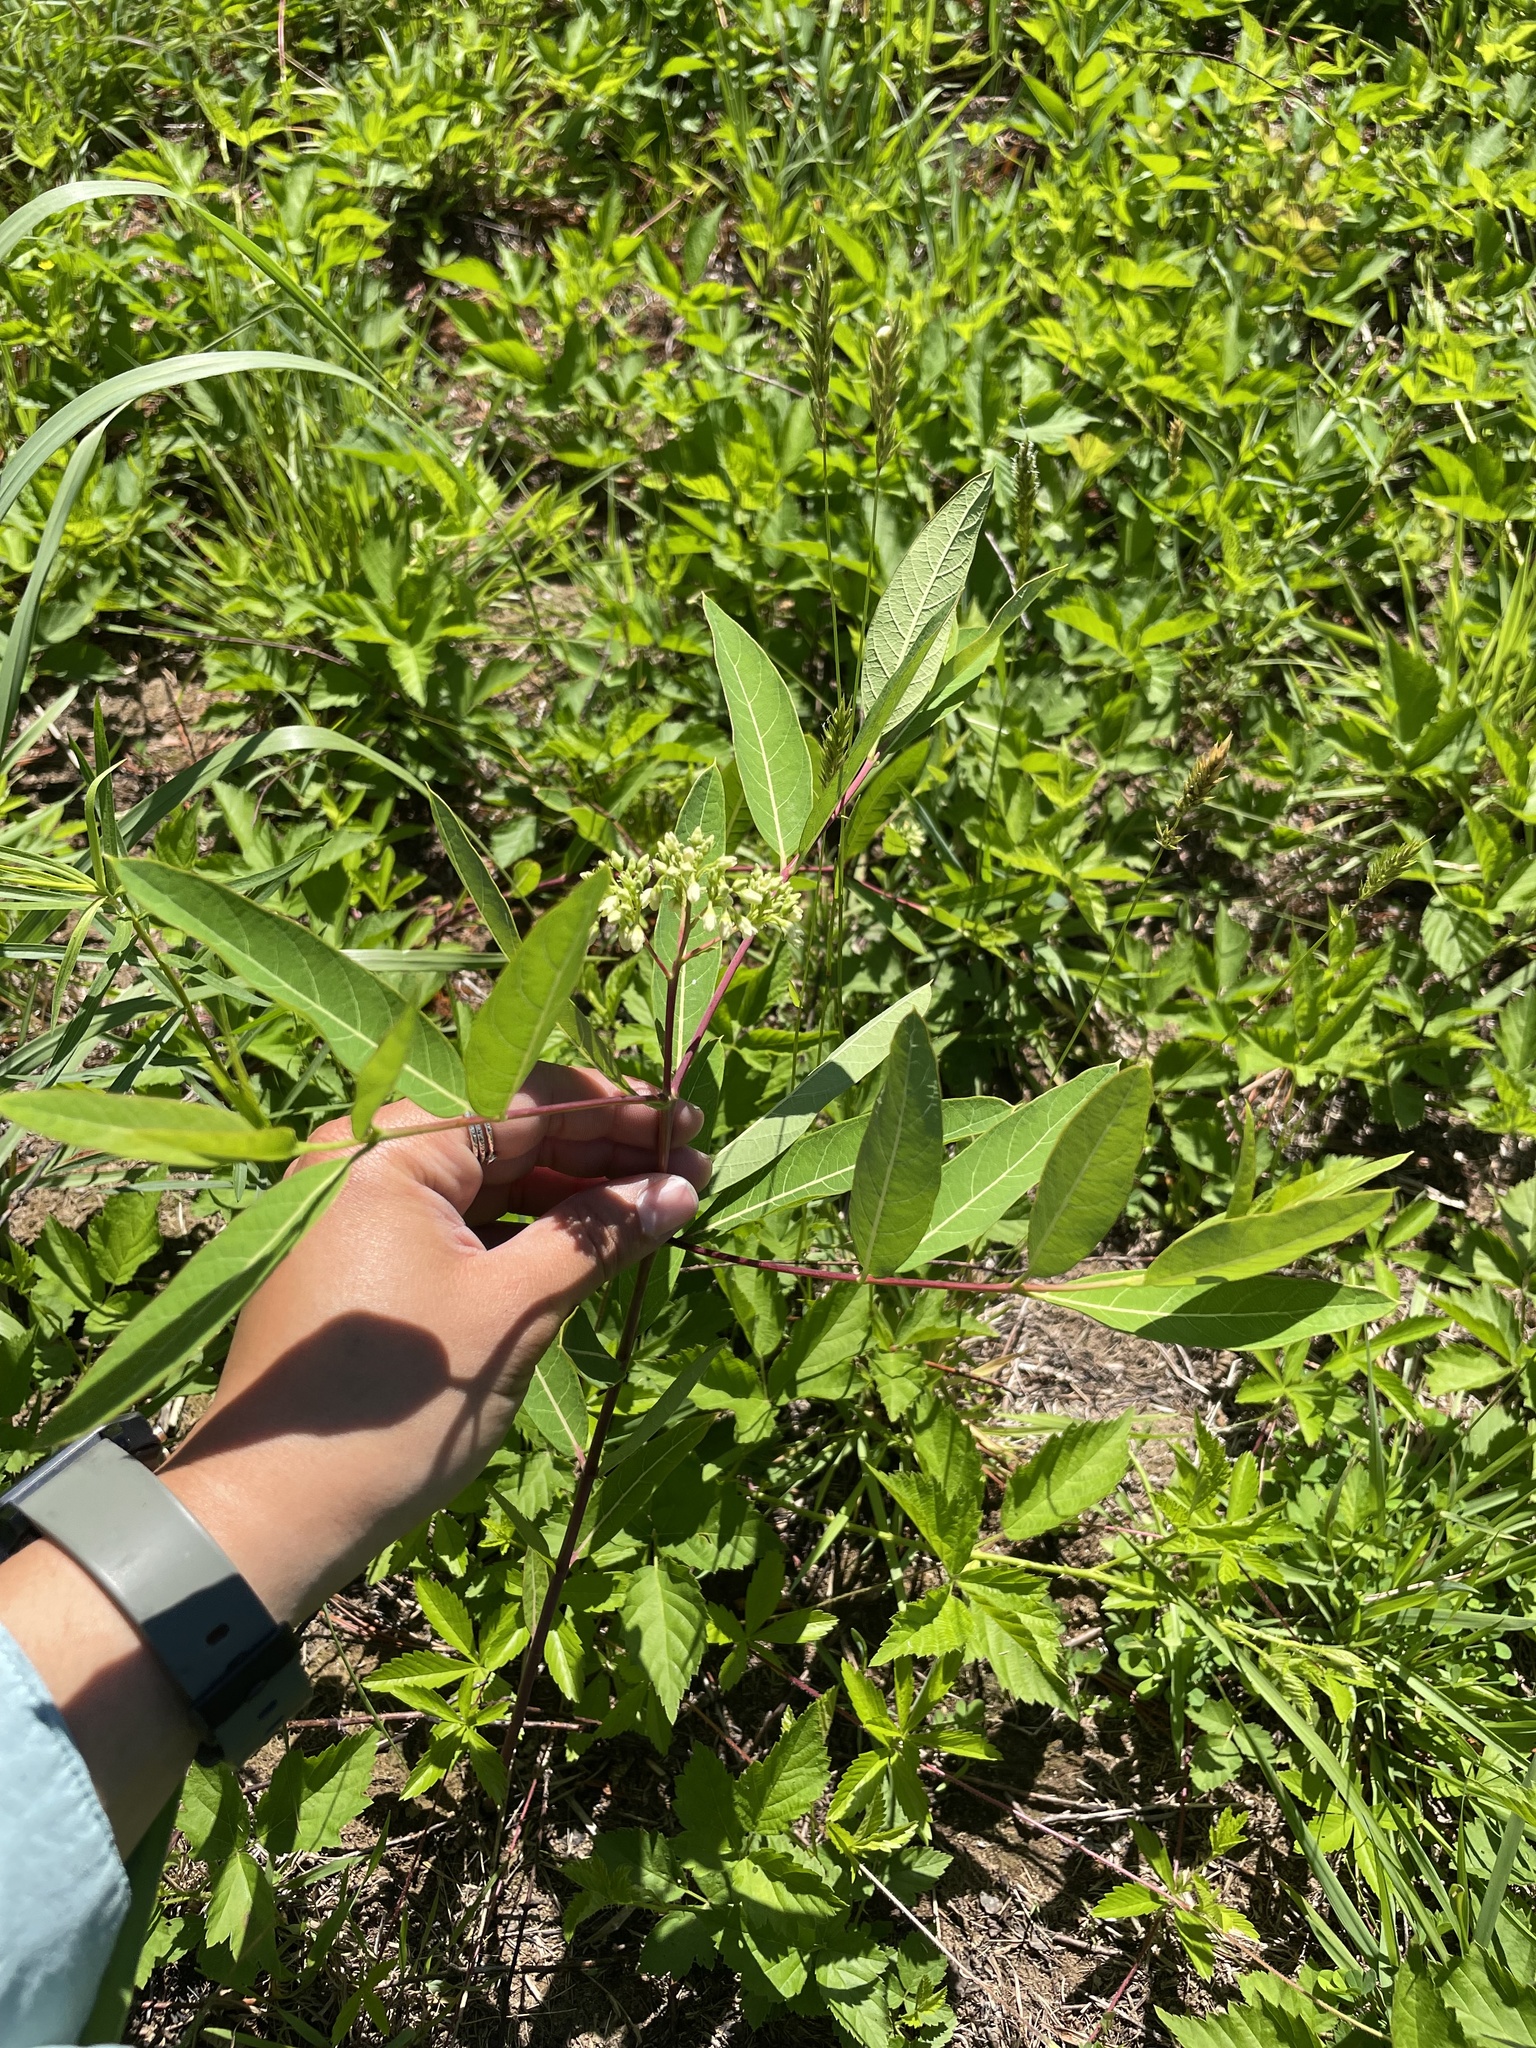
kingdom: Plantae
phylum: Tracheophyta
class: Magnoliopsida
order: Gentianales
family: Apocynaceae
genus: Apocynum
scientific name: Apocynum cannabinum
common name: Hemp dogbane
